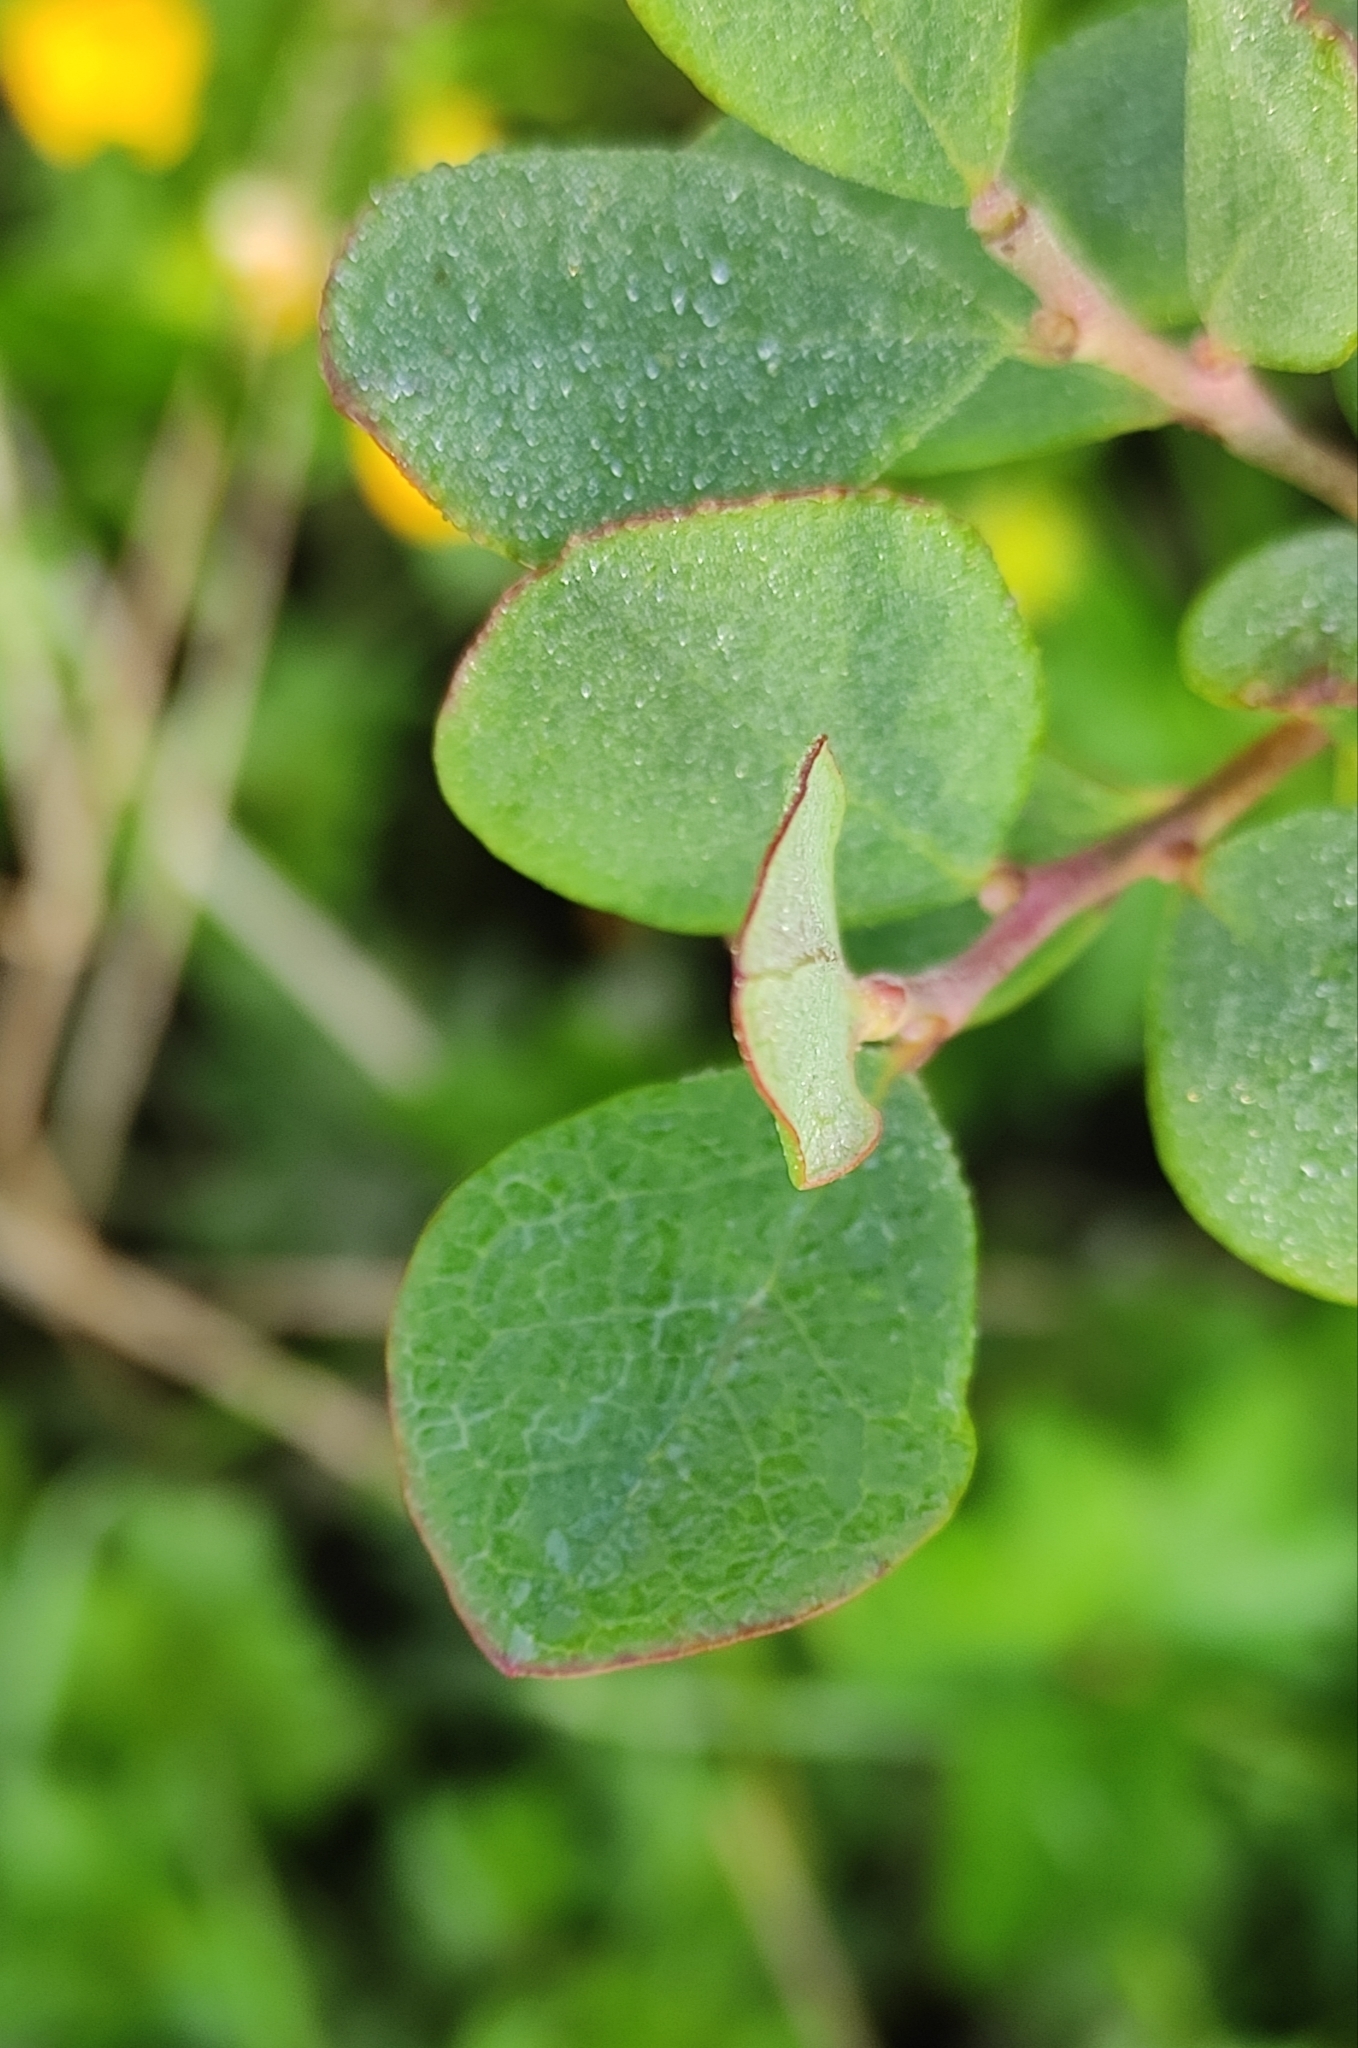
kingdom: Plantae
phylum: Tracheophyta
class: Magnoliopsida
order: Ericales
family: Ericaceae
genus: Vaccinium
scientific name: Vaccinium uliginosum
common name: Bog bilberry
